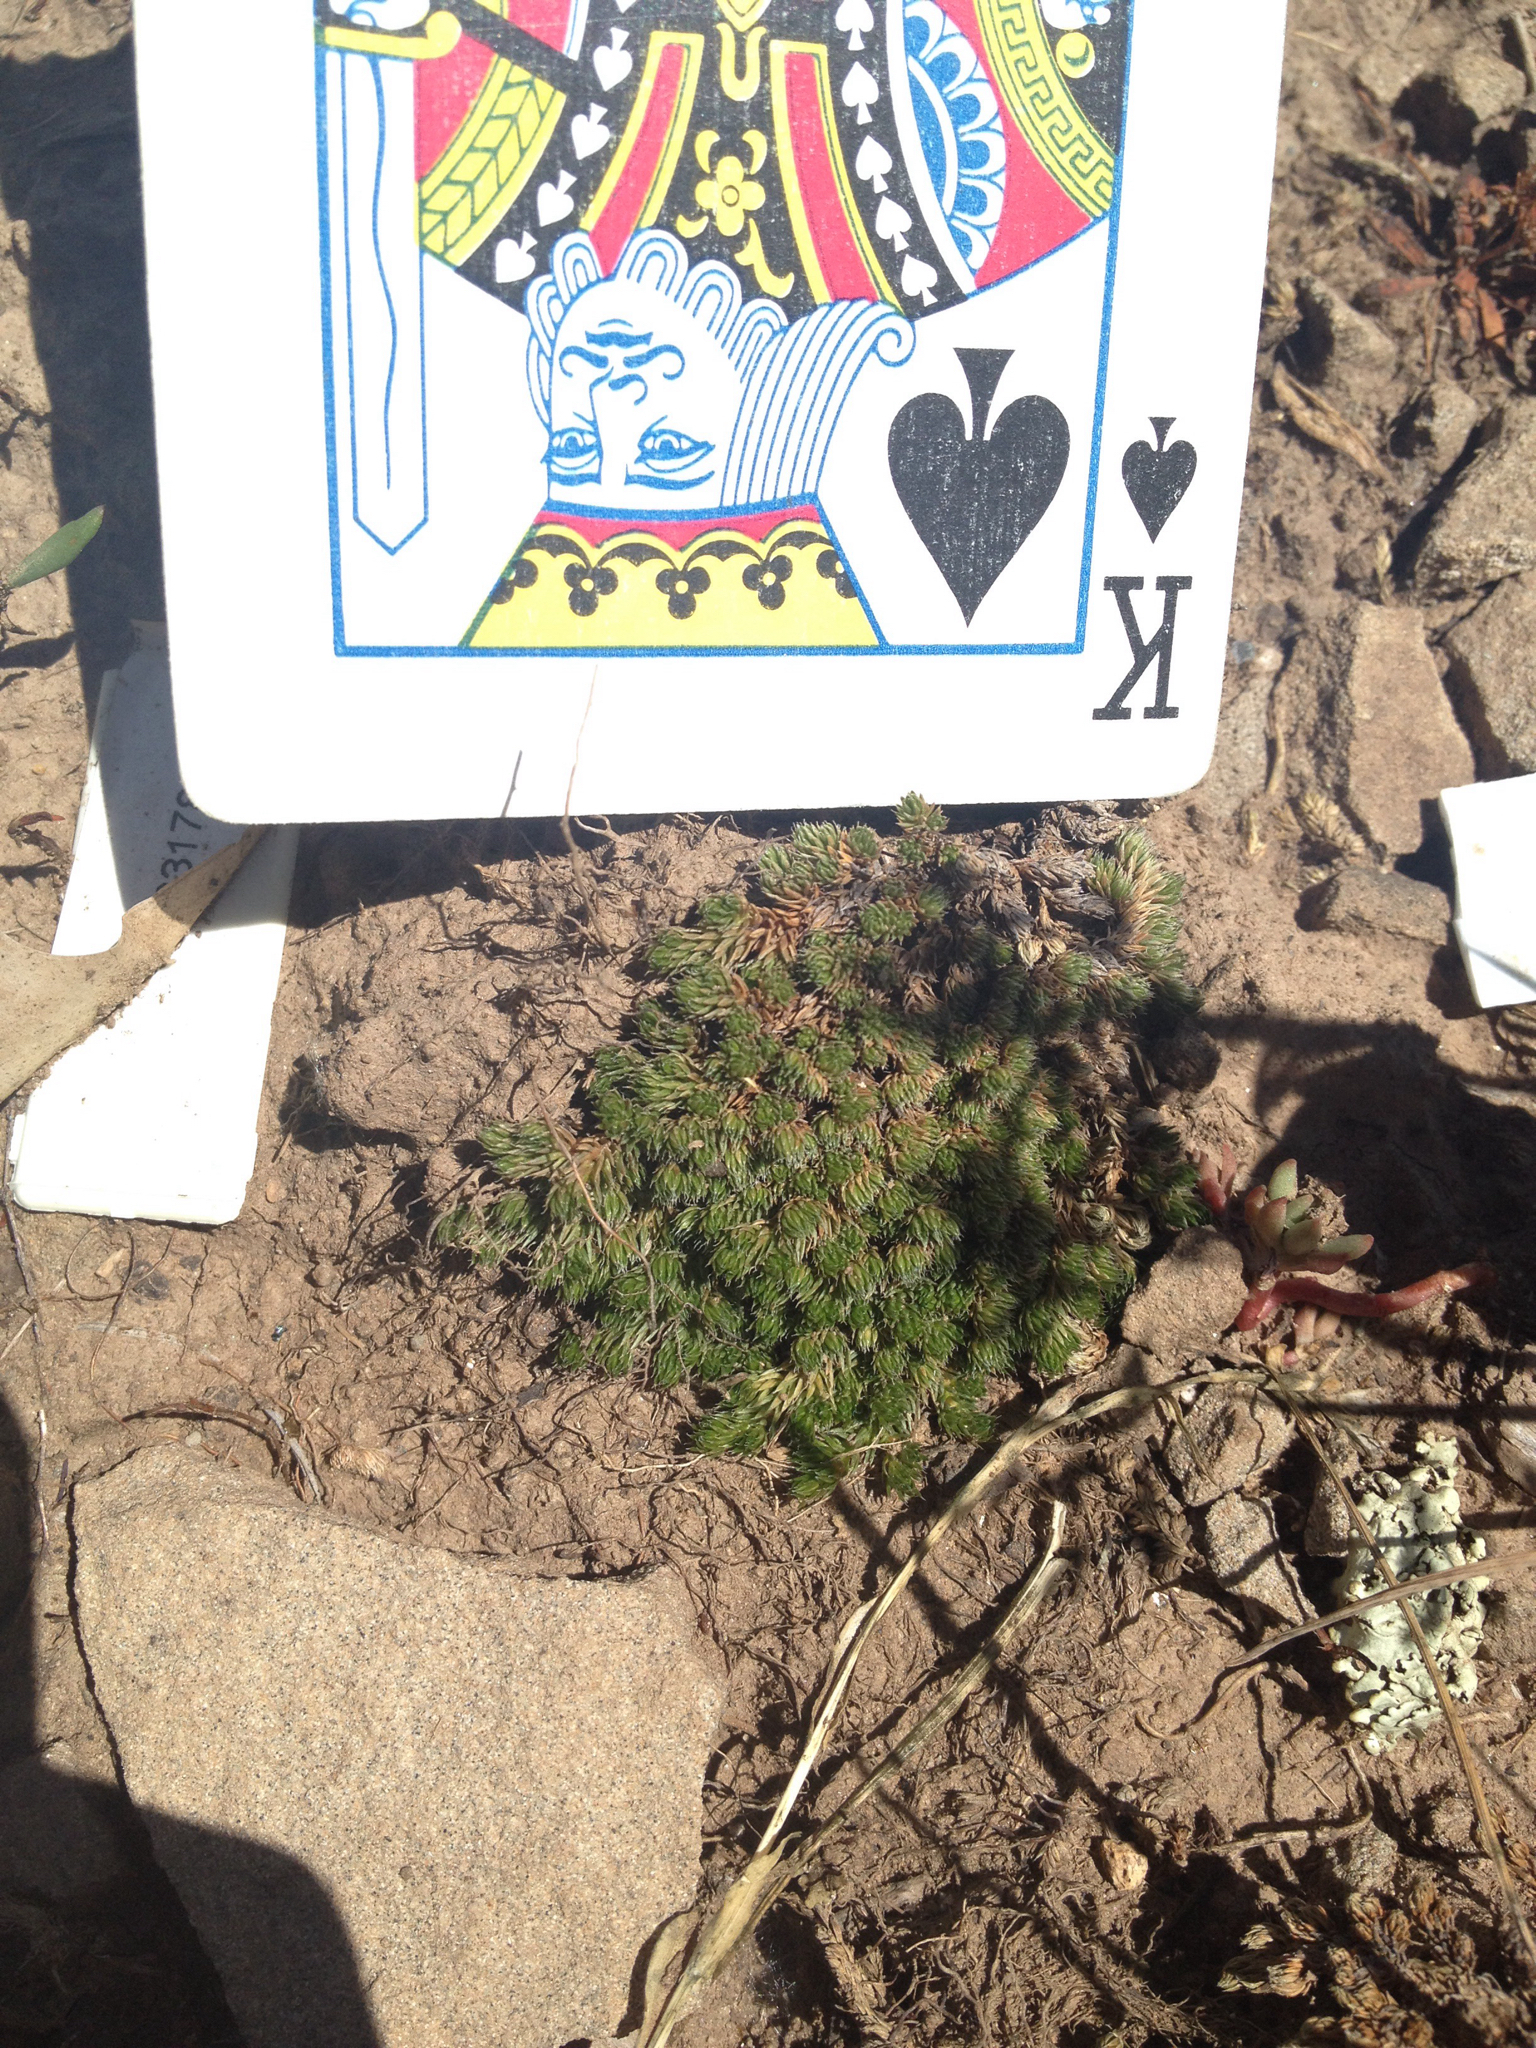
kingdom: Plantae
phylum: Tracheophyta
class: Lycopodiopsida
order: Selaginellales
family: Selaginellaceae
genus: Selaginella
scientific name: Selaginella densa
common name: Mountain spike-moss
